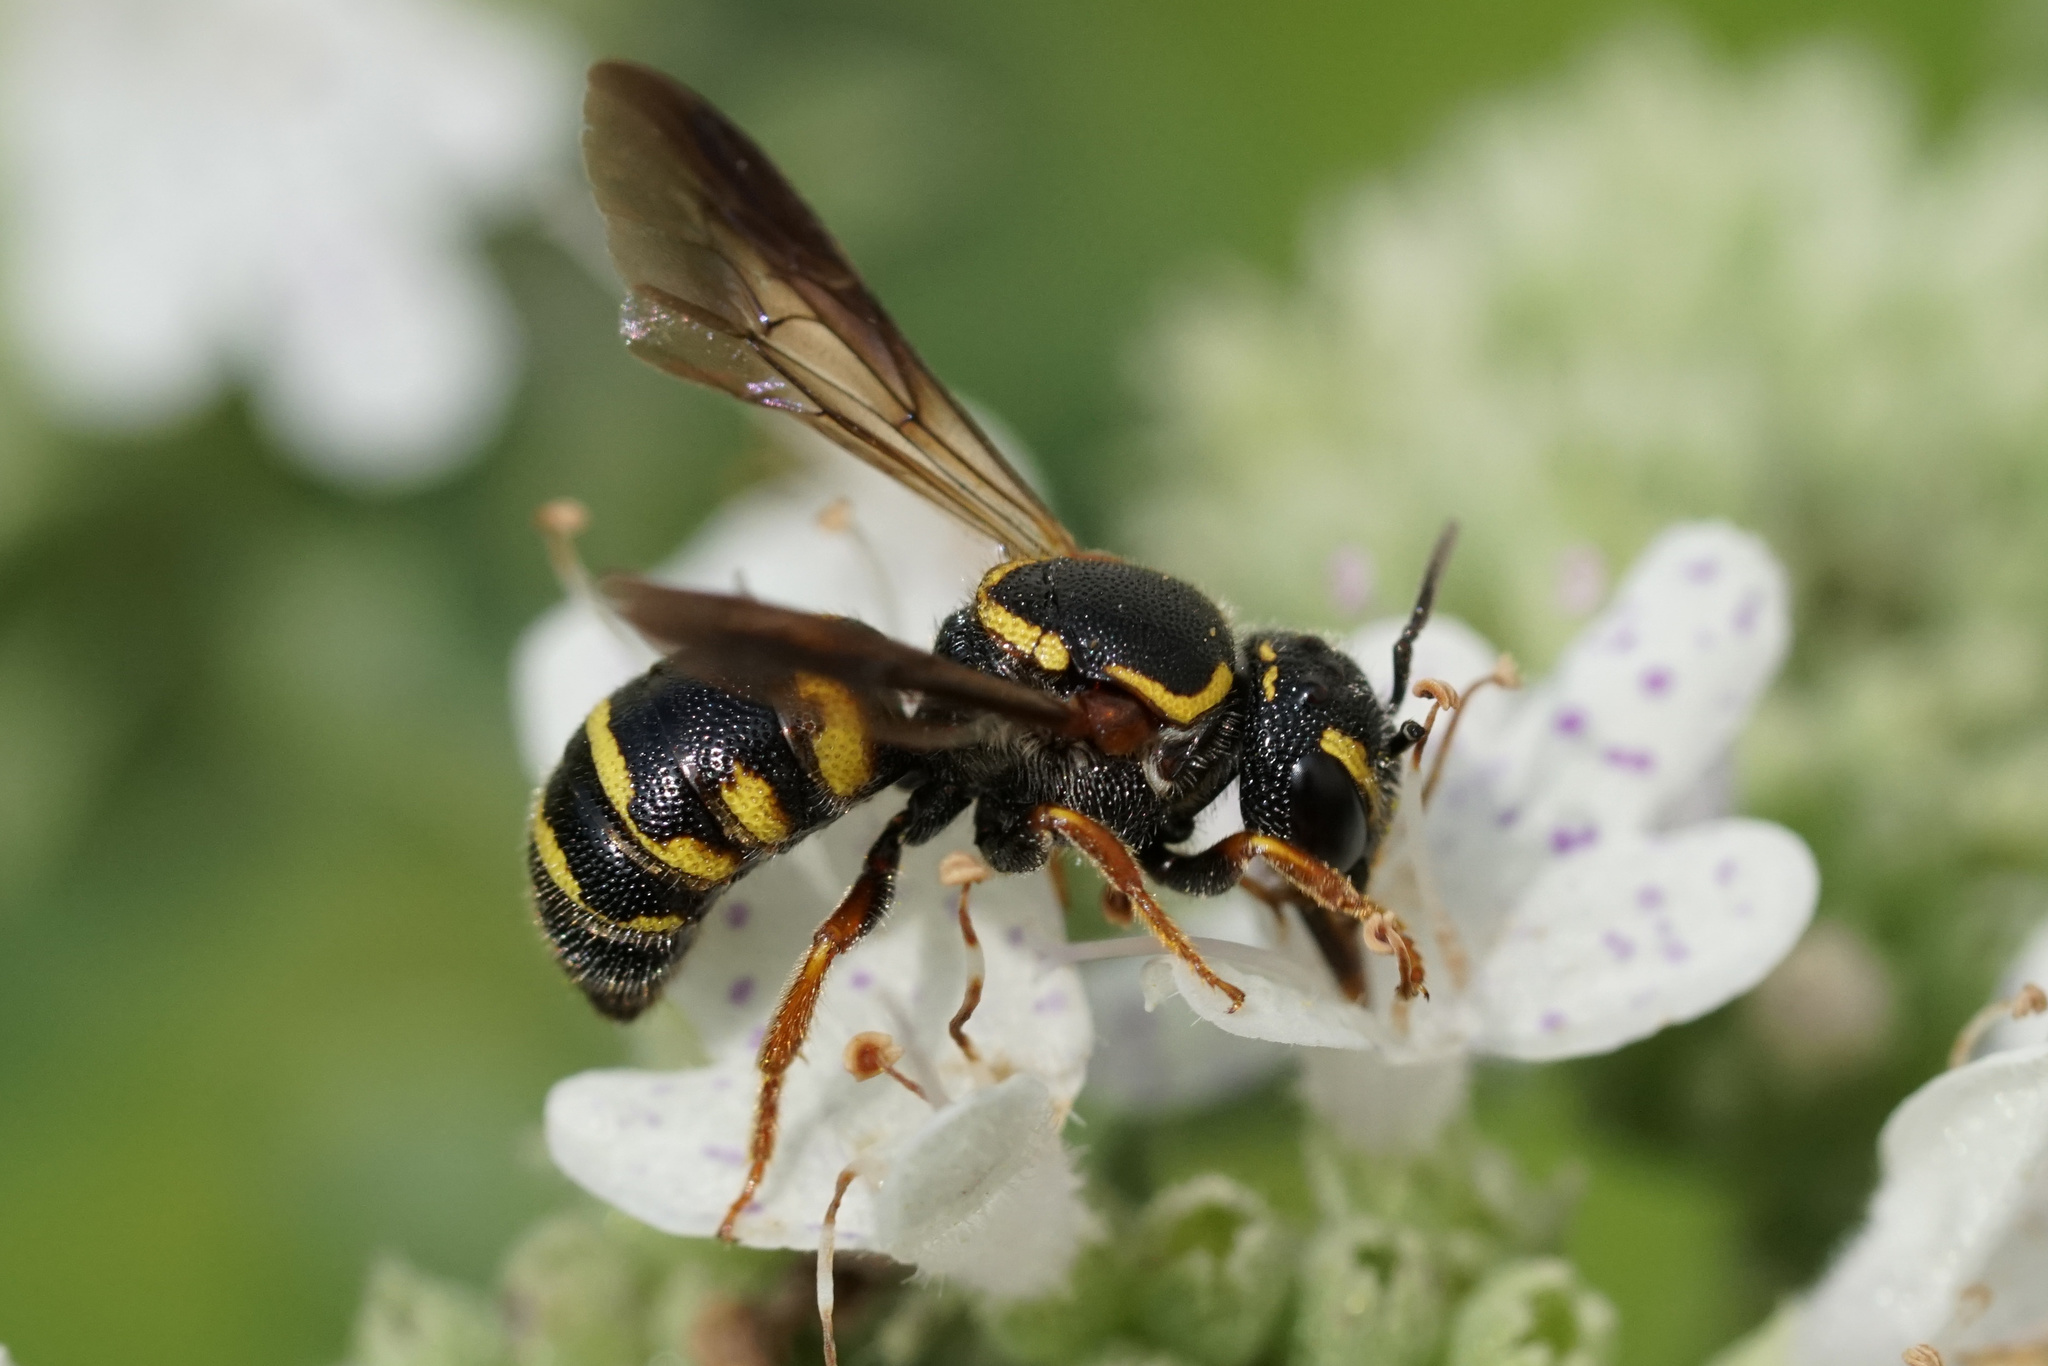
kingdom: Animalia
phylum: Arthropoda
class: Insecta
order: Hymenoptera
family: Megachilidae
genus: Stelis
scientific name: Stelis louisae
